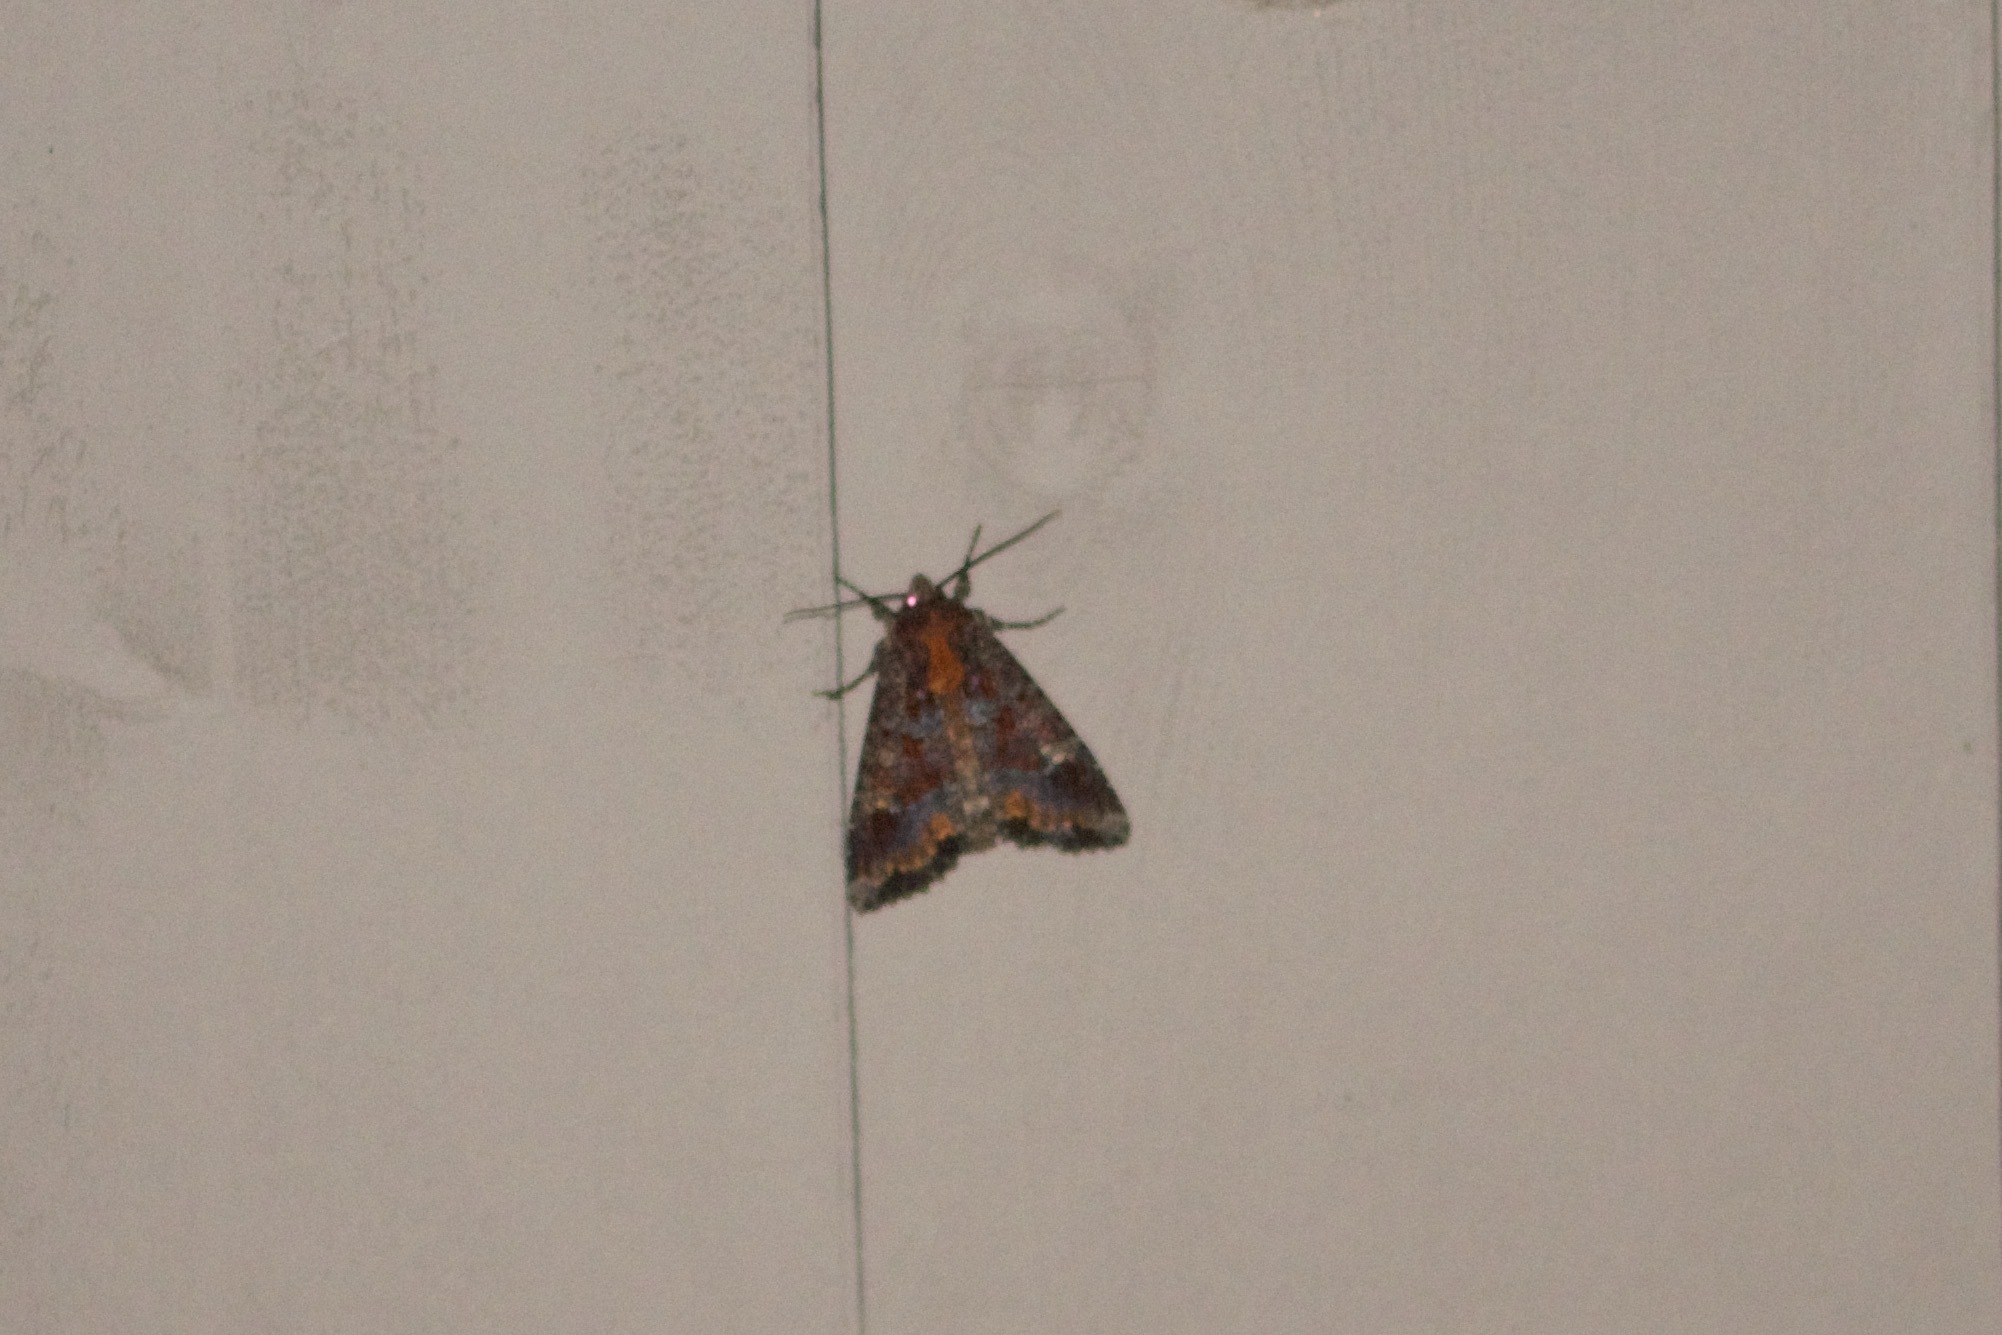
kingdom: Animalia
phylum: Arthropoda
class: Insecta
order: Lepidoptera
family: Noctuidae
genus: Apamea
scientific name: Apamea amputatrix
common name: Yellow-headed cutworm moth
